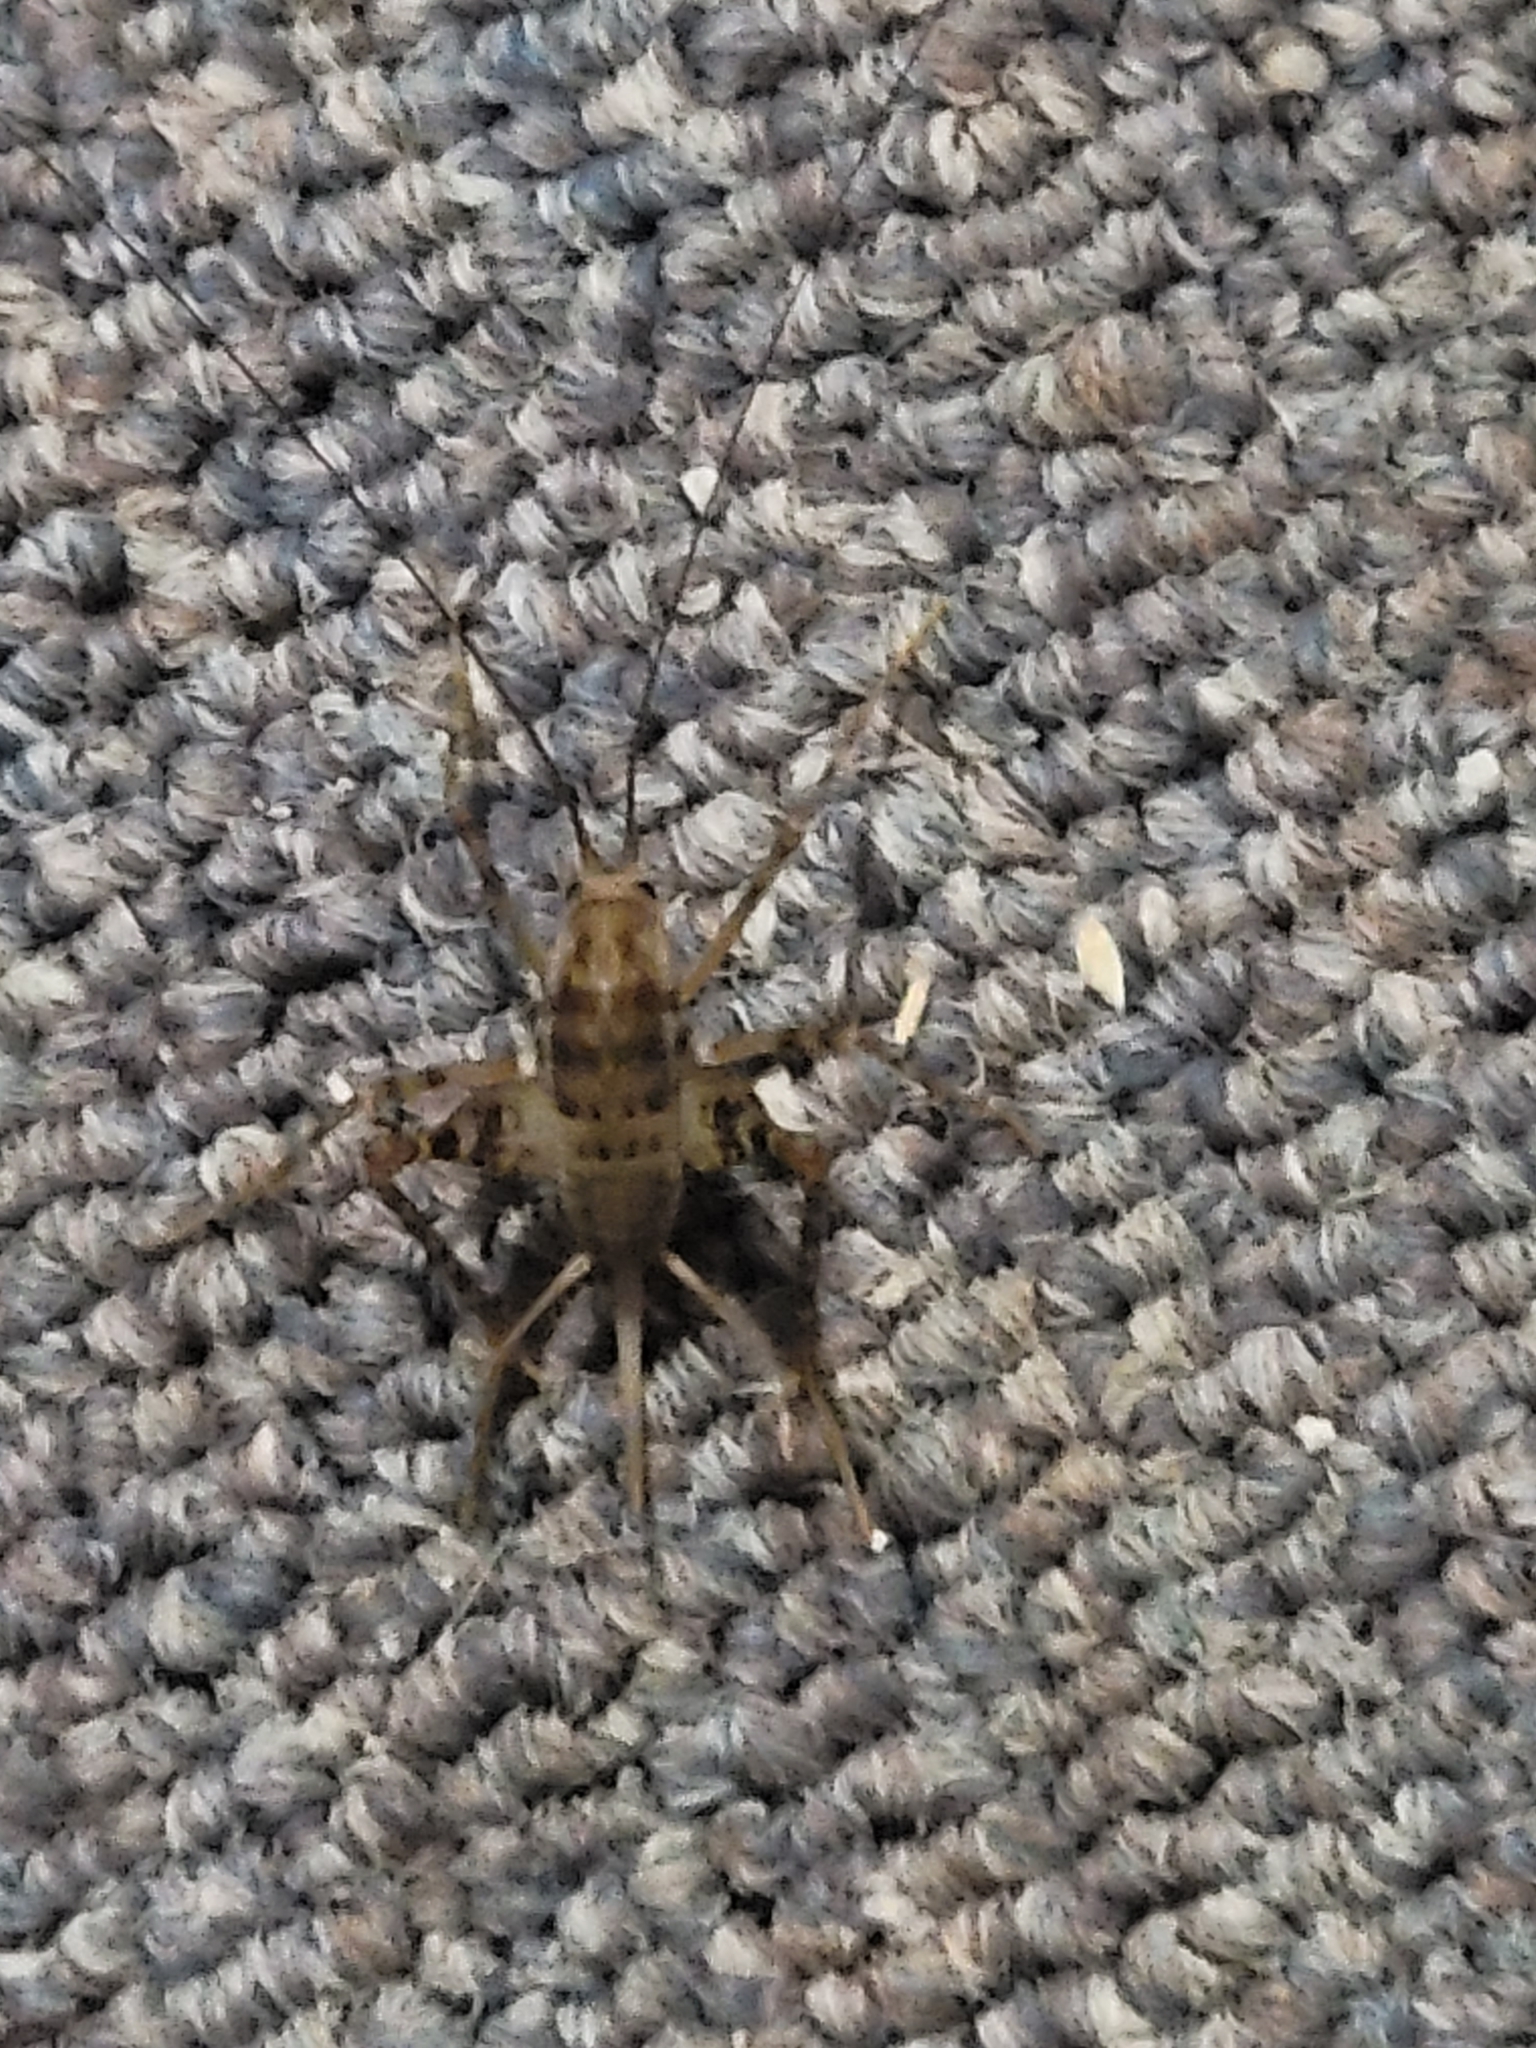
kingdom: Animalia
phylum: Arthropoda
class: Insecta
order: Orthoptera
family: Rhaphidophoridae
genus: Tachycines
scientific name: Tachycines asynamorus
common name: Greenhouse camel cricket
